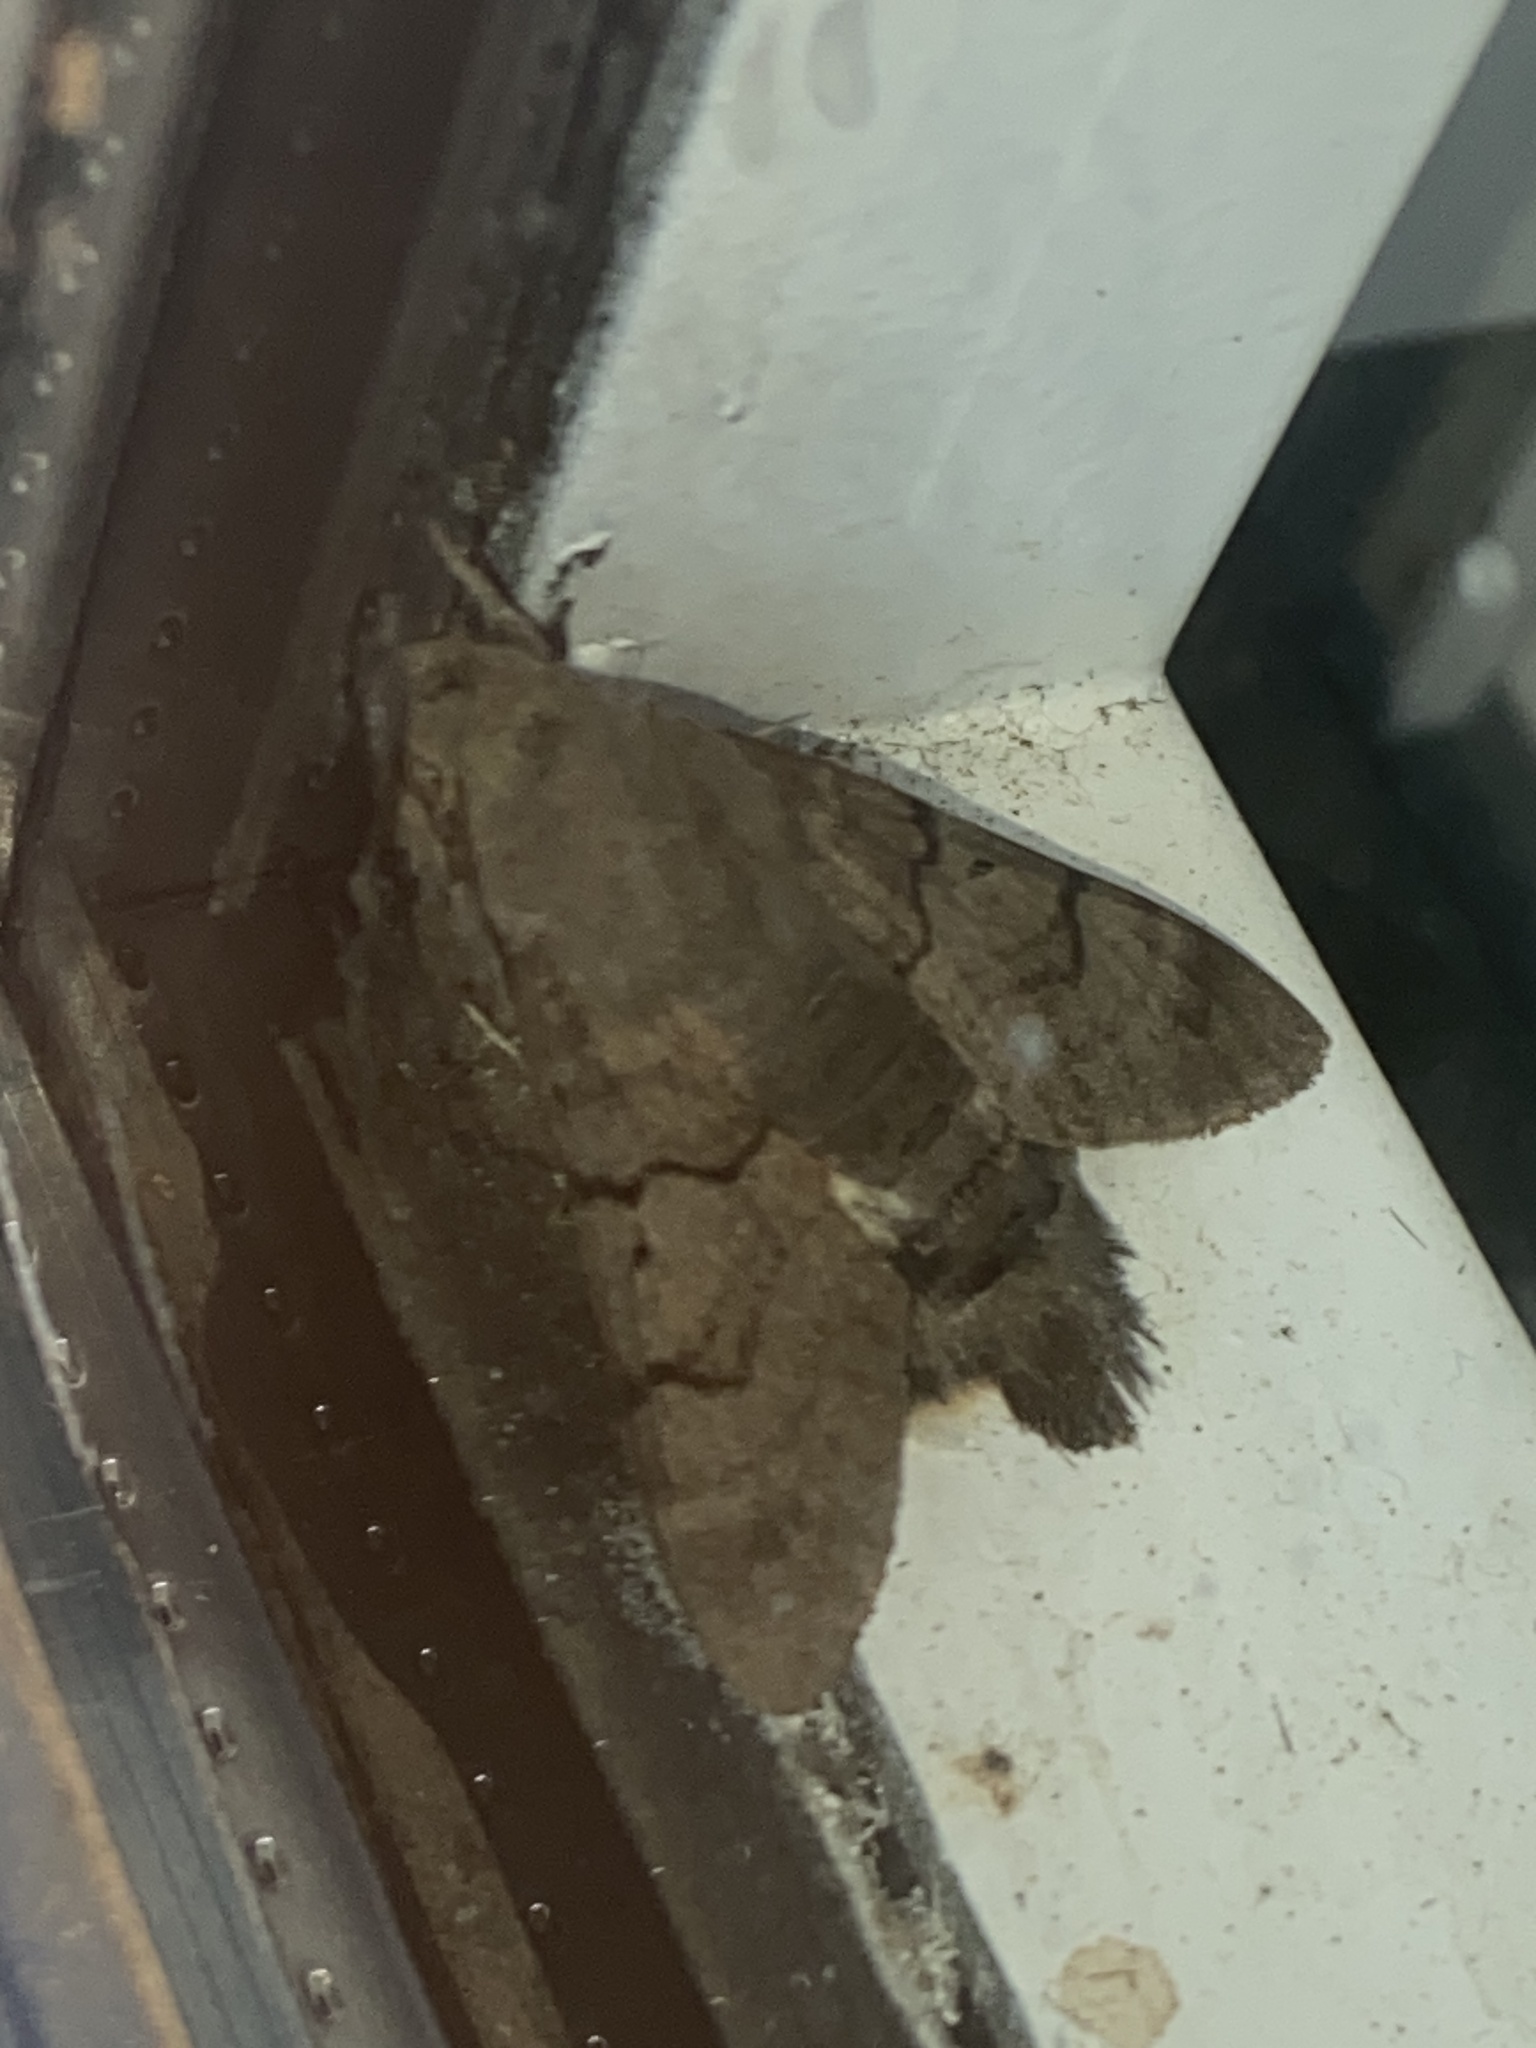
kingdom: Animalia
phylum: Arthropoda
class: Insecta
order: Lepidoptera
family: Sphingidae
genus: Macroglossum
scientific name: Macroglossum stellatarum
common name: Humming-bird hawk-moth
